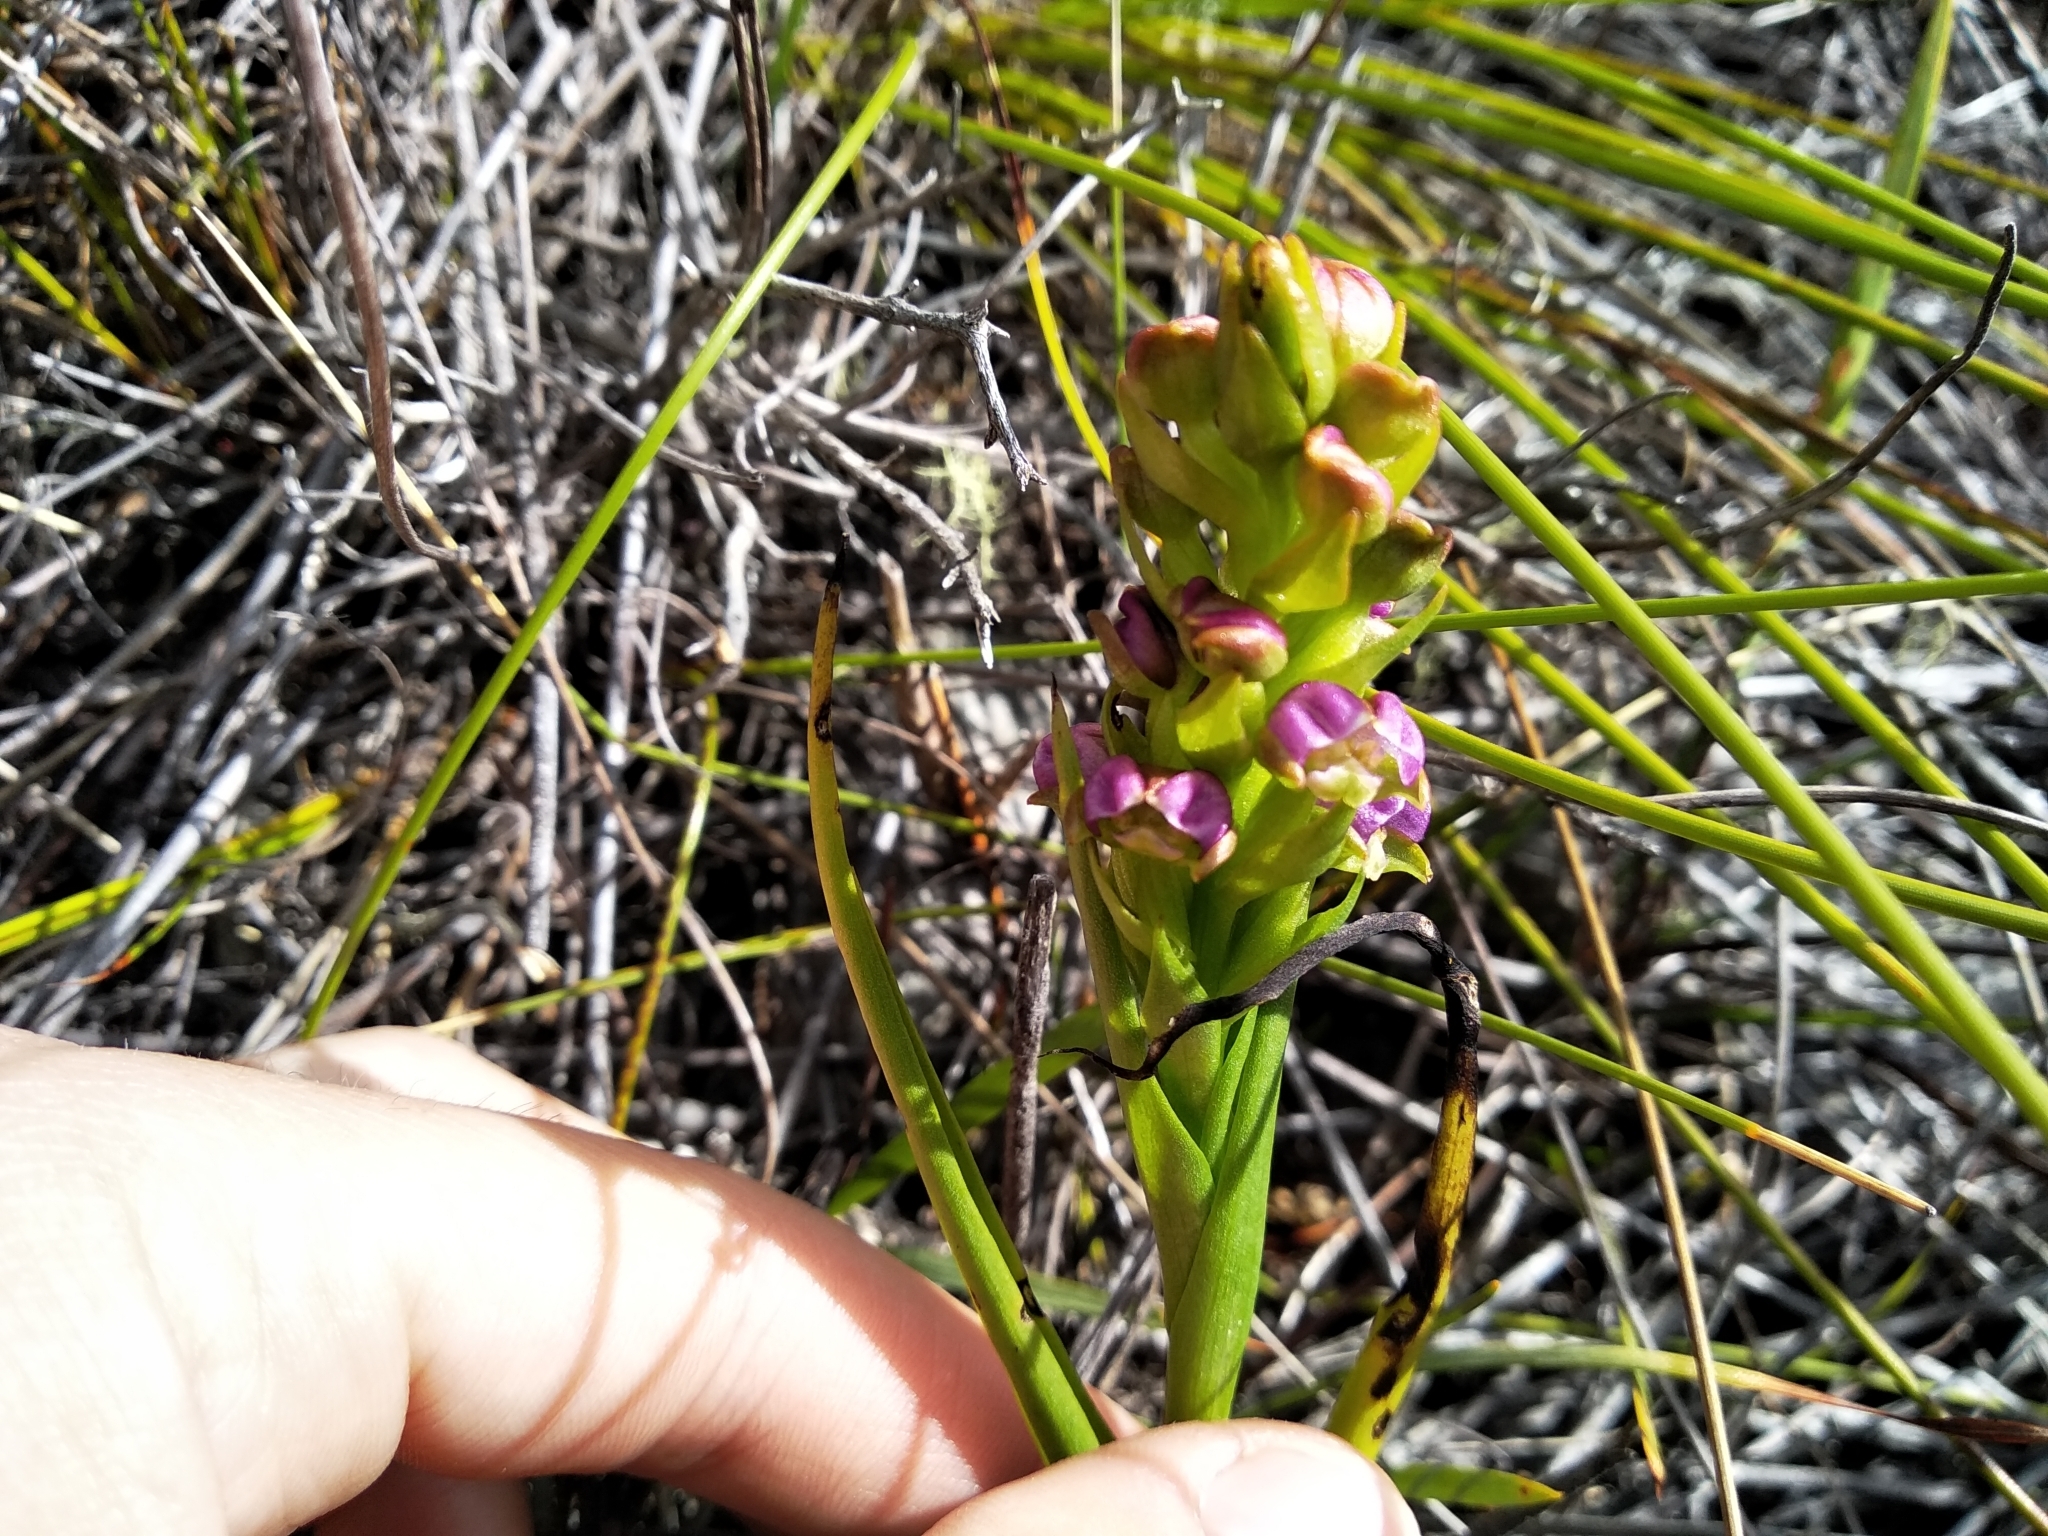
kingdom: Plantae
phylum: Tracheophyta
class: Liliopsida
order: Asparagales
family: Orchidaceae
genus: Evotella
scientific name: Evotella carnosa
